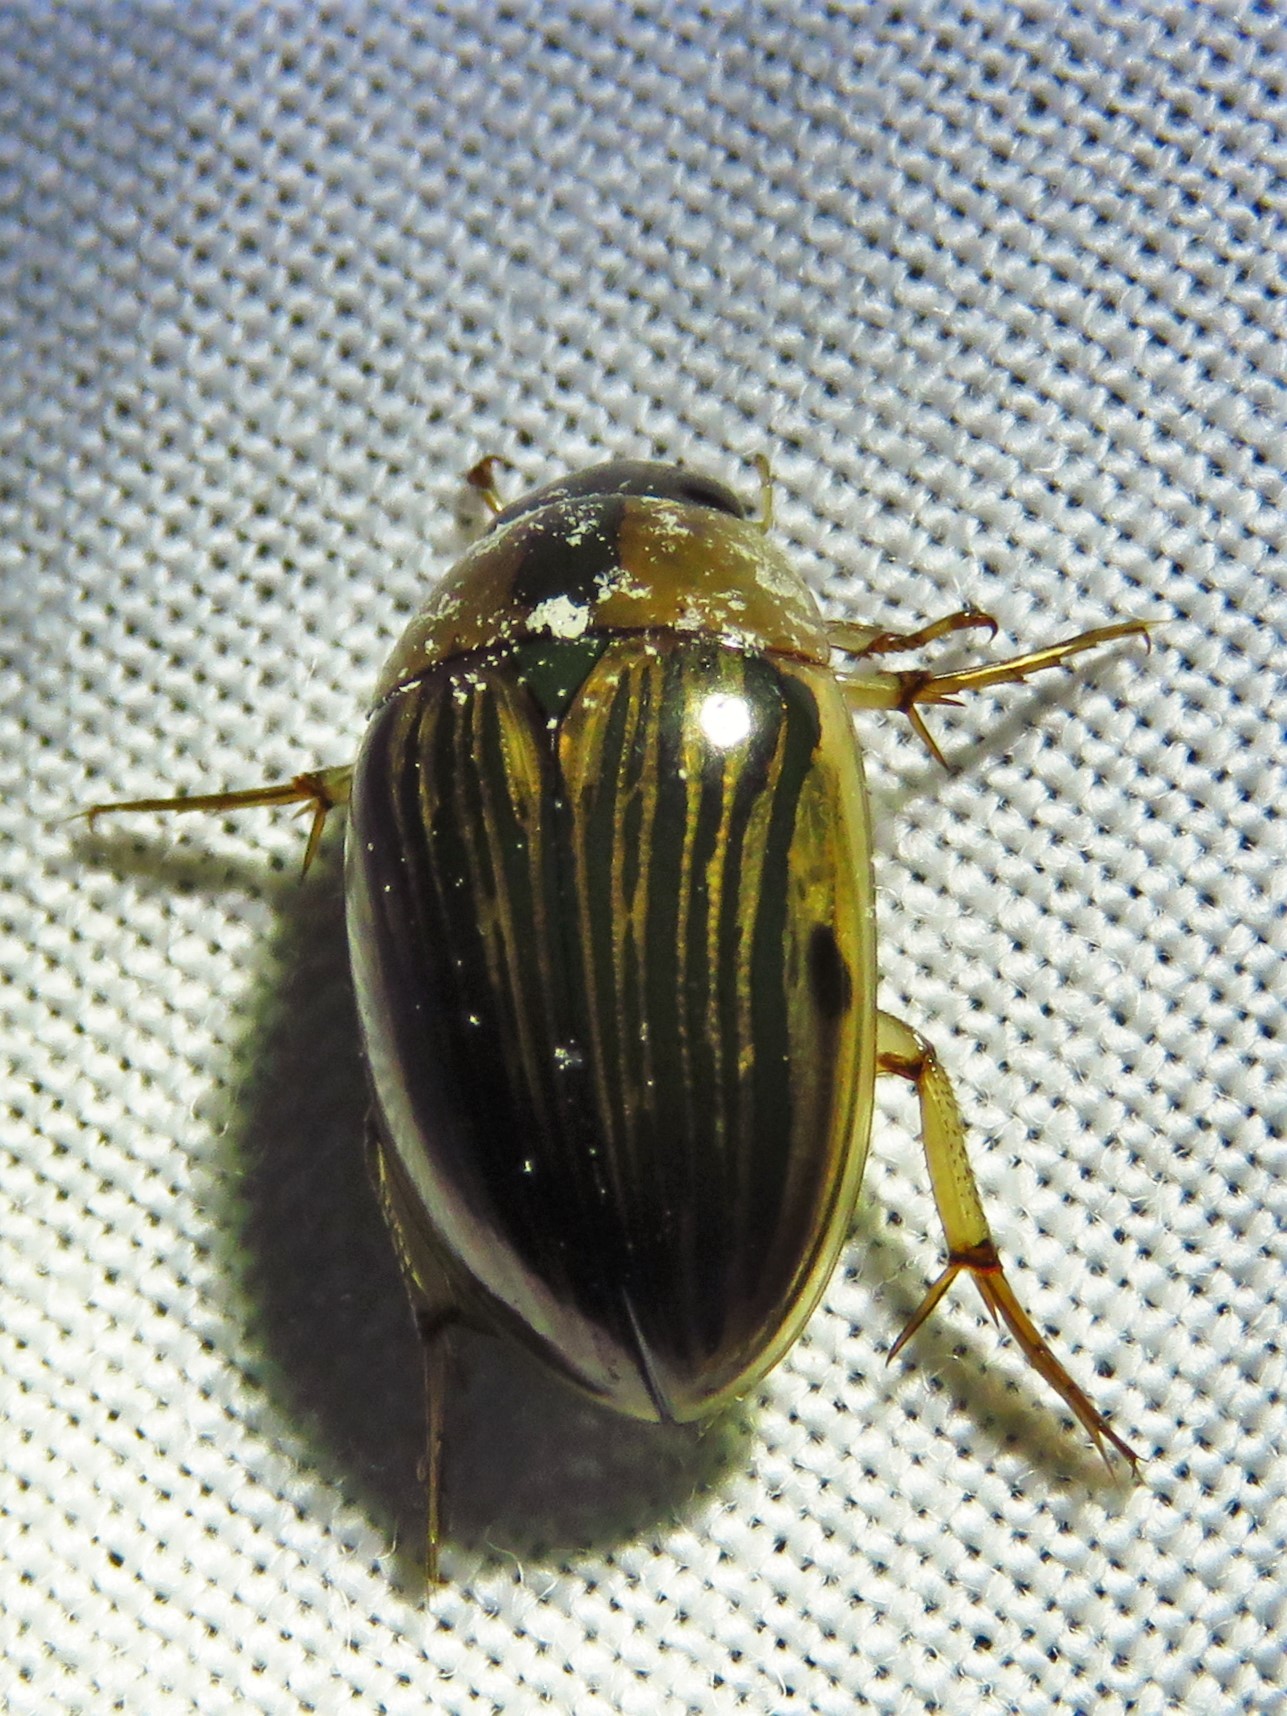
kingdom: Animalia
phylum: Arthropoda
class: Insecta
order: Coleoptera
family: Hydrophilidae
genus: Tropisternus
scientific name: Tropisternus collaris
